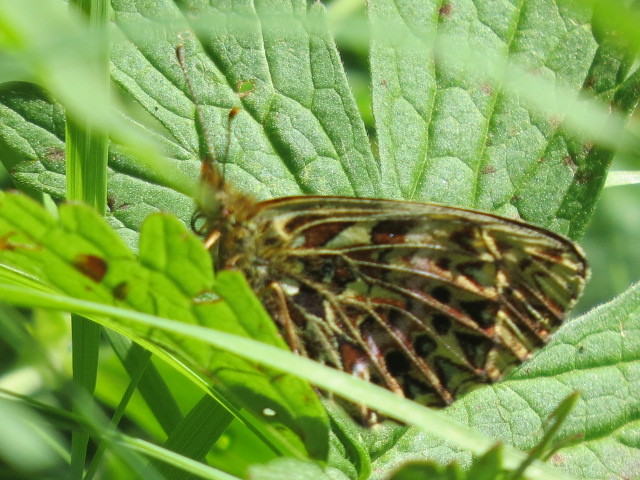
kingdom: Animalia
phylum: Arthropoda
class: Insecta
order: Lepidoptera
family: Nymphalidae
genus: Boloria
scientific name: Boloria titania
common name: Titania's fritillary
